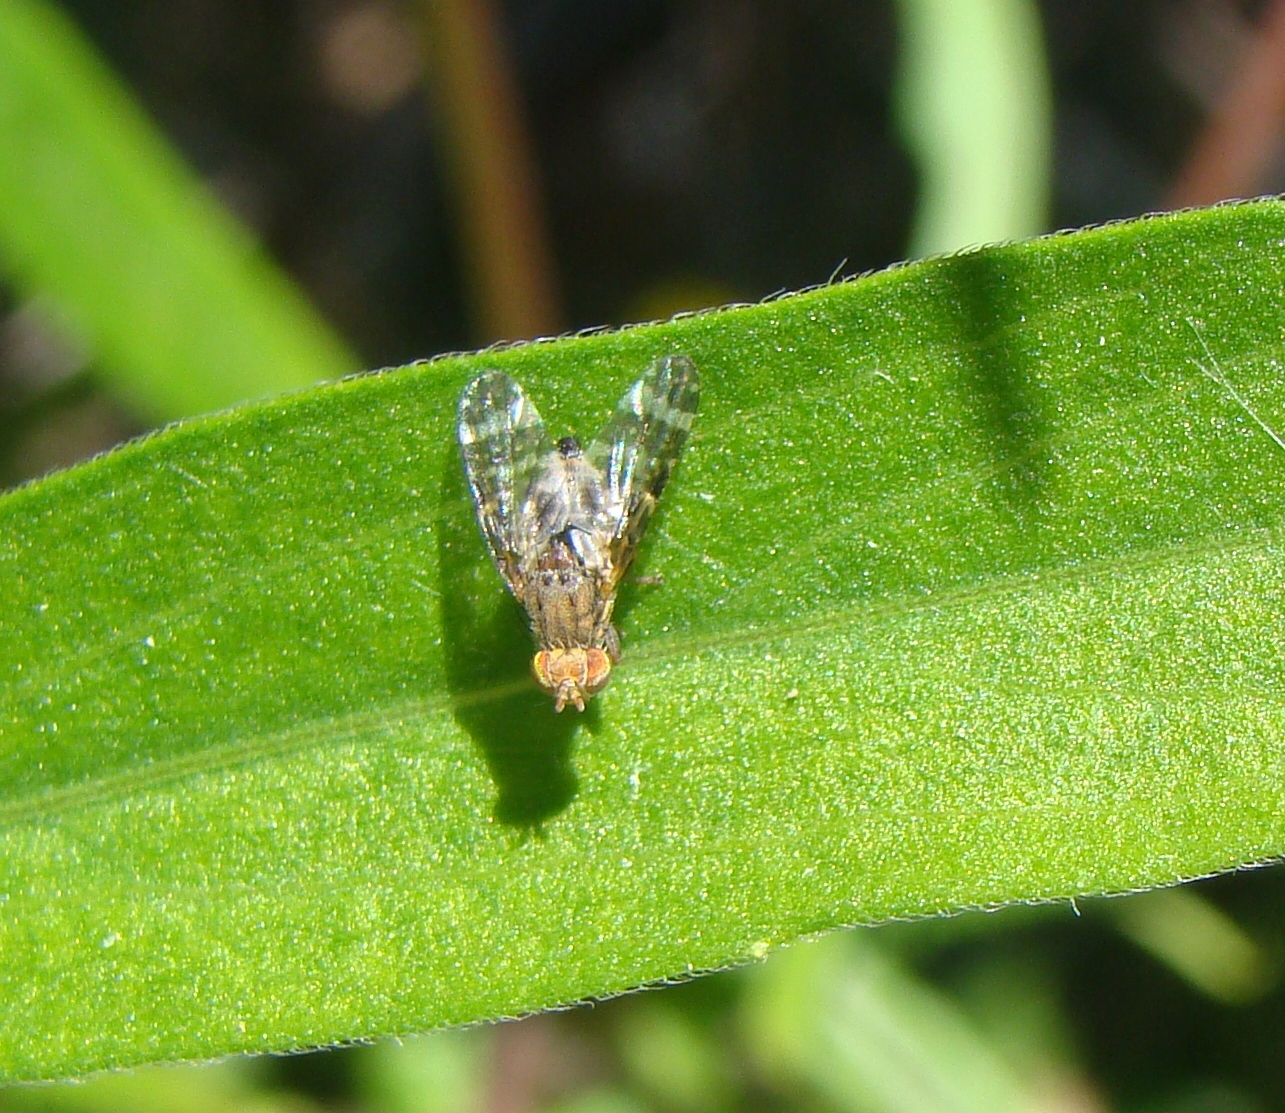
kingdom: Animalia
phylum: Arthropoda
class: Insecta
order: Diptera
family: Tephritidae
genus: Sphenella
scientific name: Sphenella
